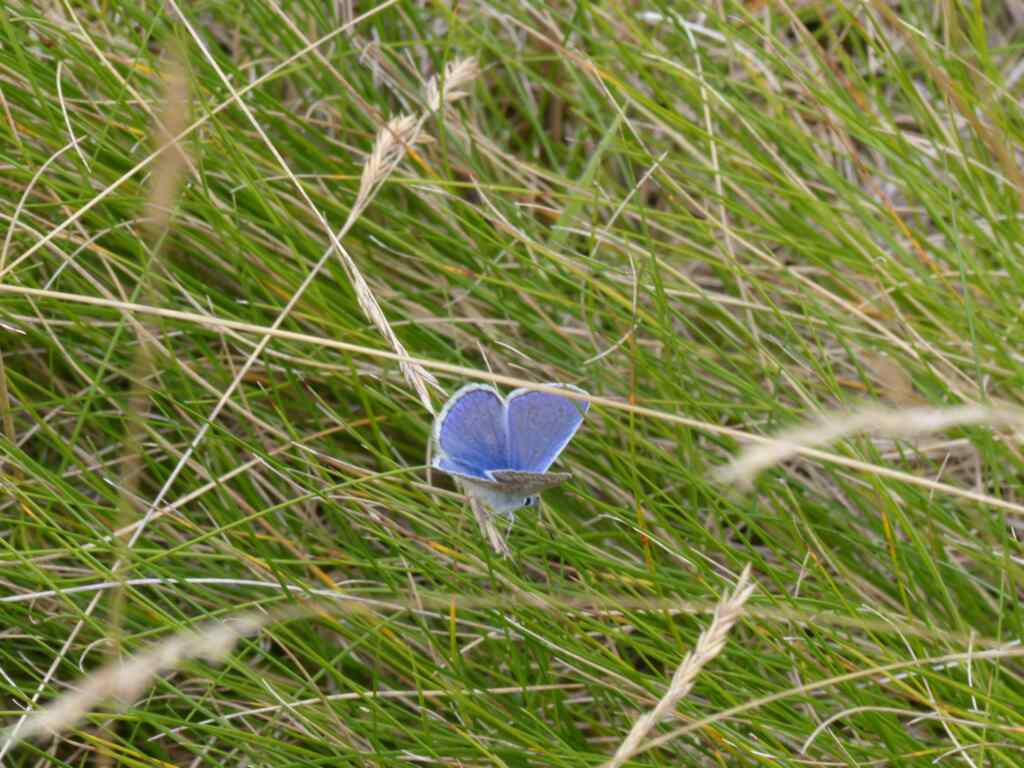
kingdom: Animalia
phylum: Arthropoda
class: Insecta
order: Lepidoptera
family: Lycaenidae
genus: Polyommatus
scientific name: Polyommatus icarus
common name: Common blue
